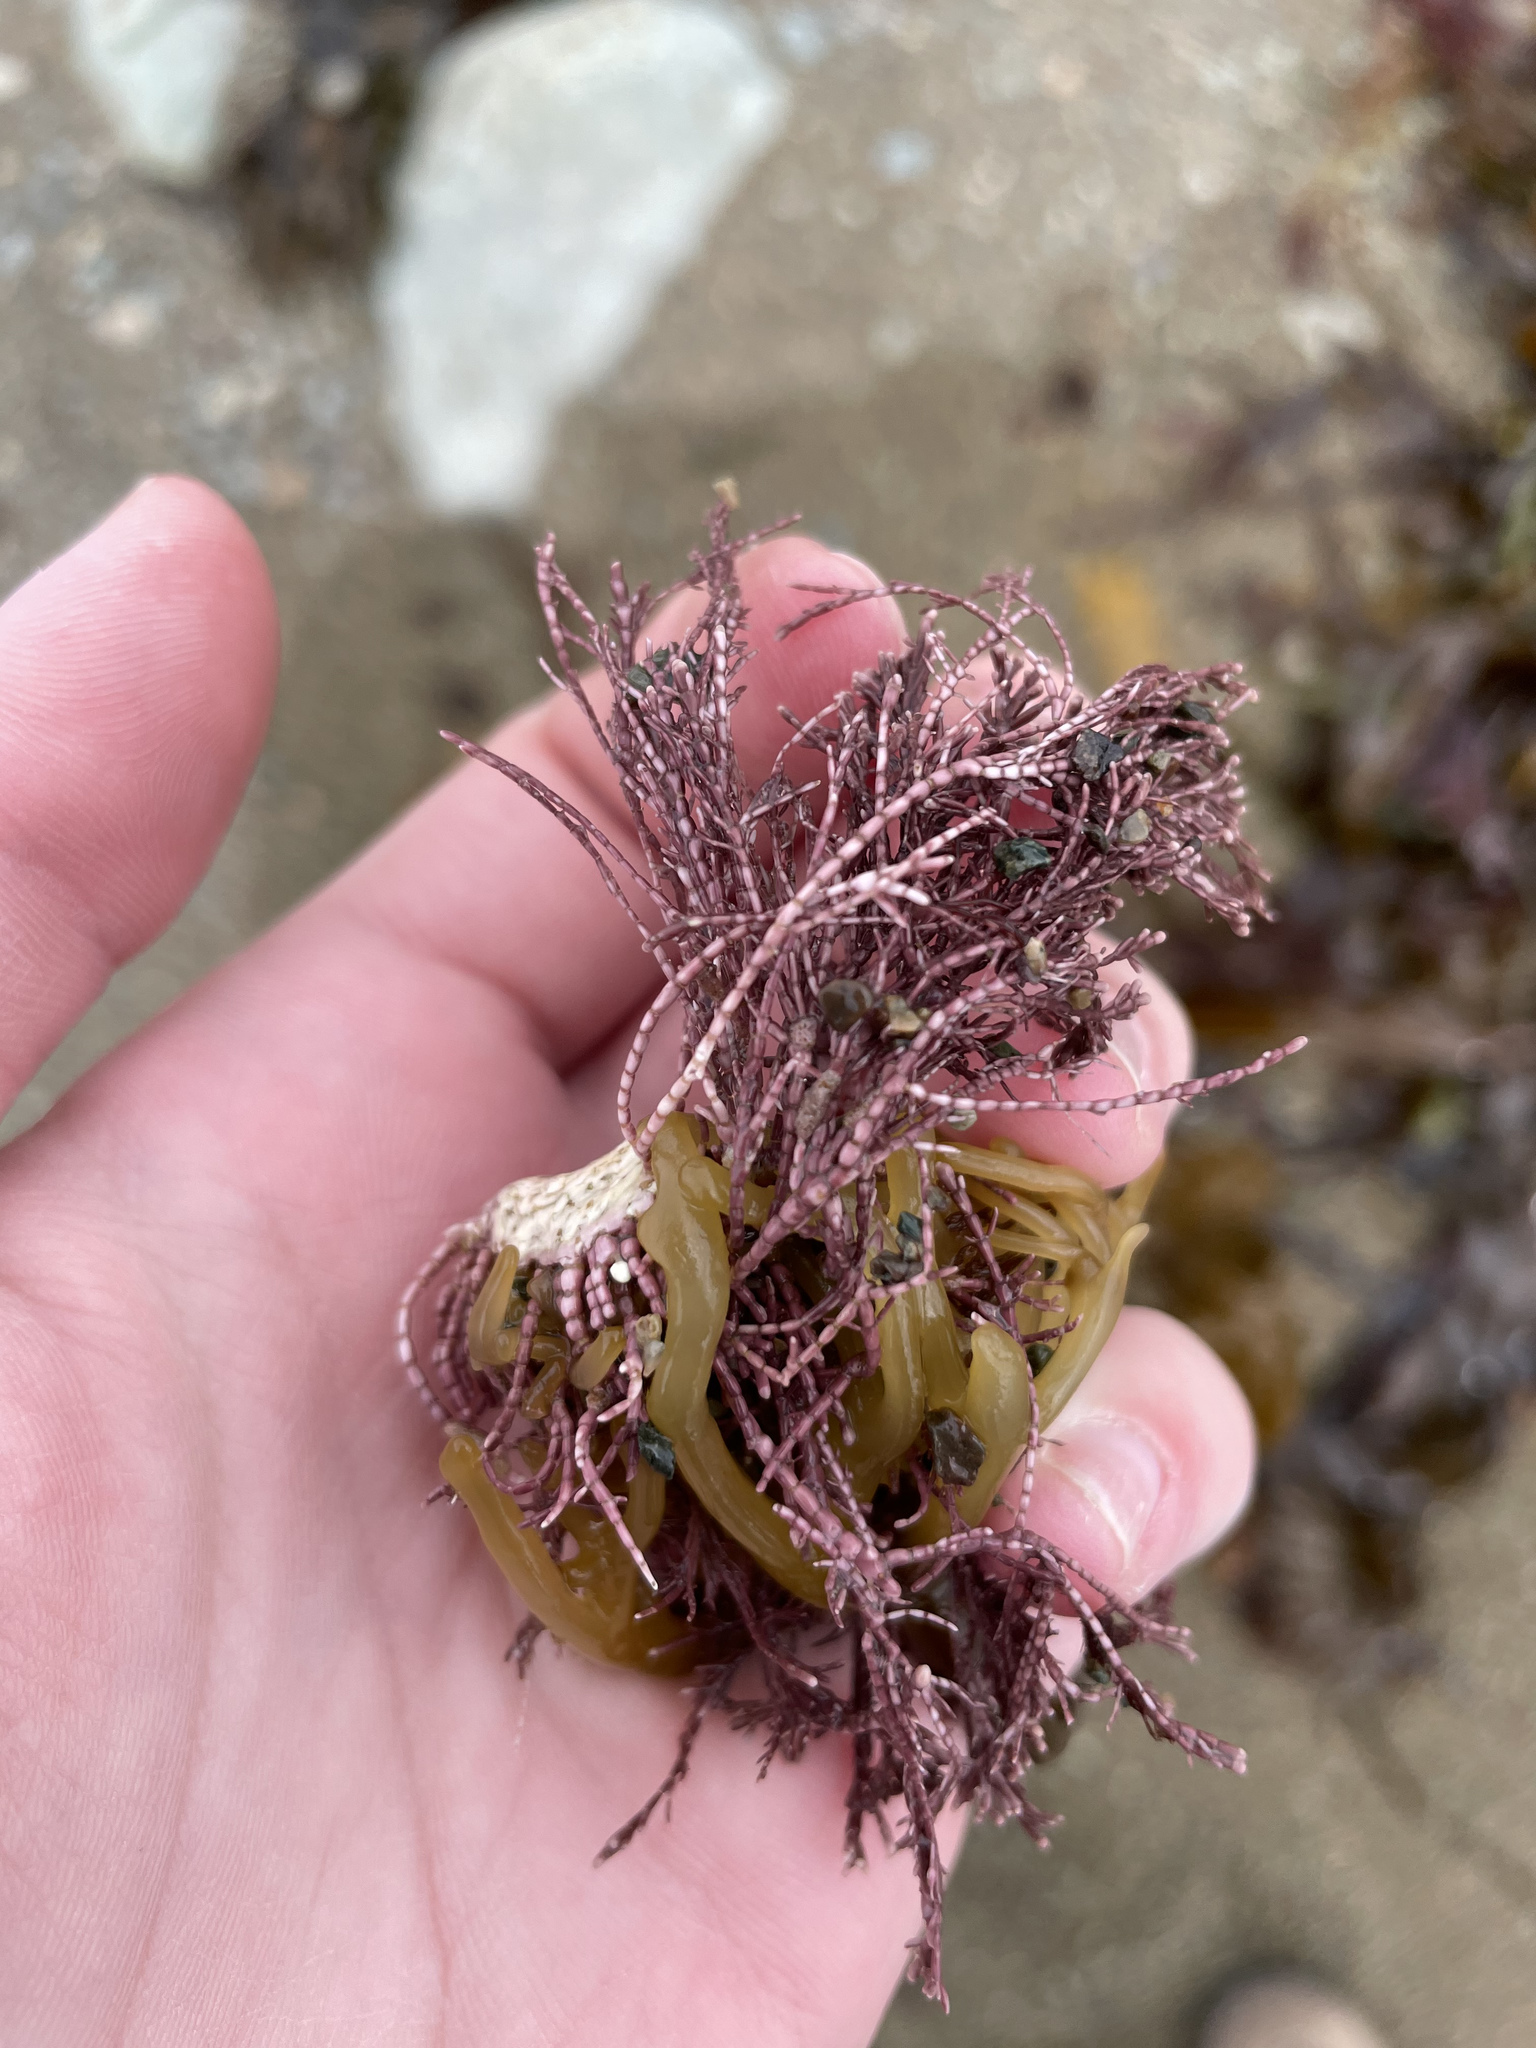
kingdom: Plantae
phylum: Rhodophyta
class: Florideophyceae
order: Corallinales
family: Corallinaceae
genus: Corallina
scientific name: Corallina officinalis
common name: Coral weed
